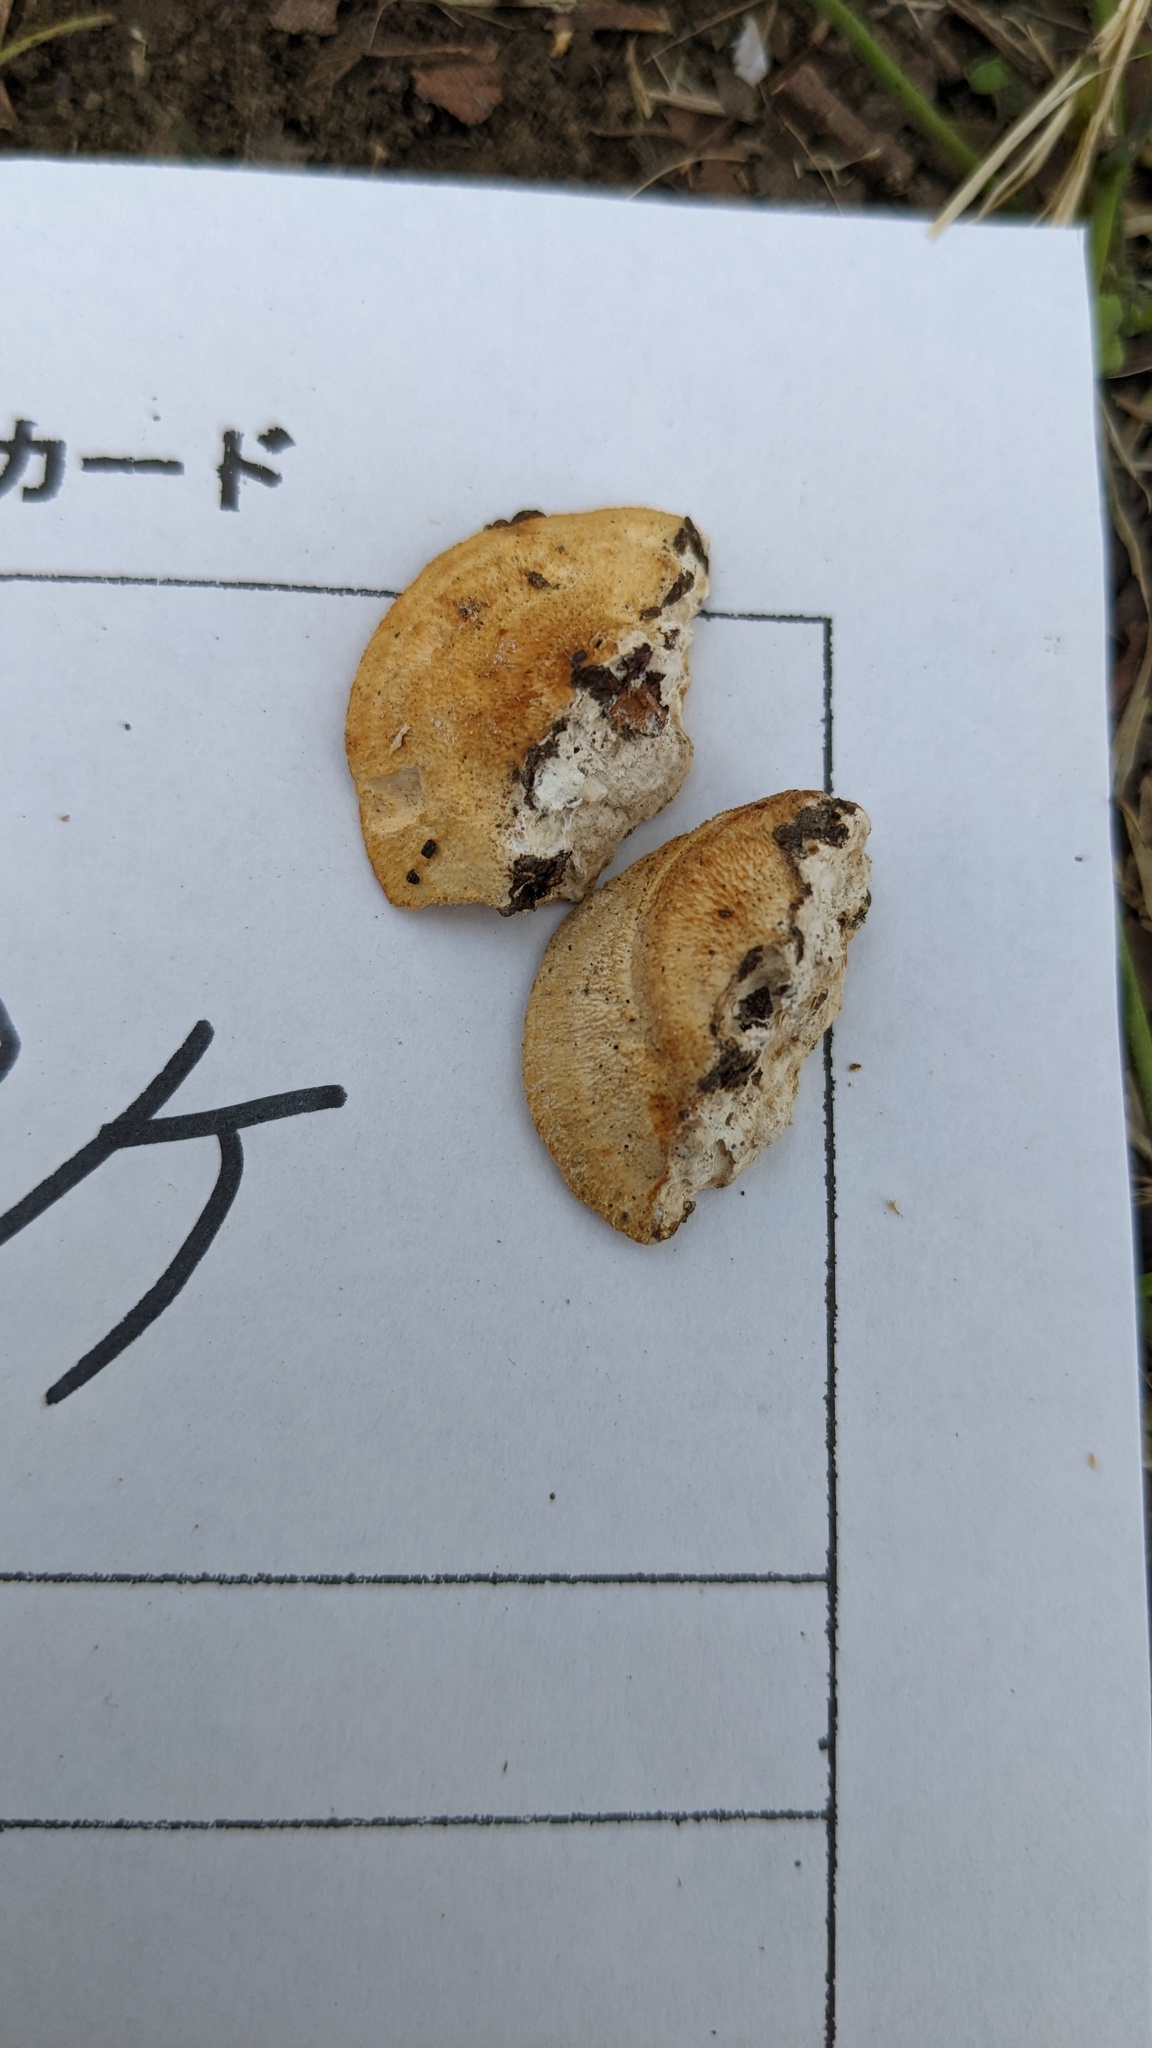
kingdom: Fungi
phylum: Basidiomycota
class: Agaricomycetes
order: Polyporales
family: Polyporaceae
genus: Truncospora
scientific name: Truncospora ochroleuca
